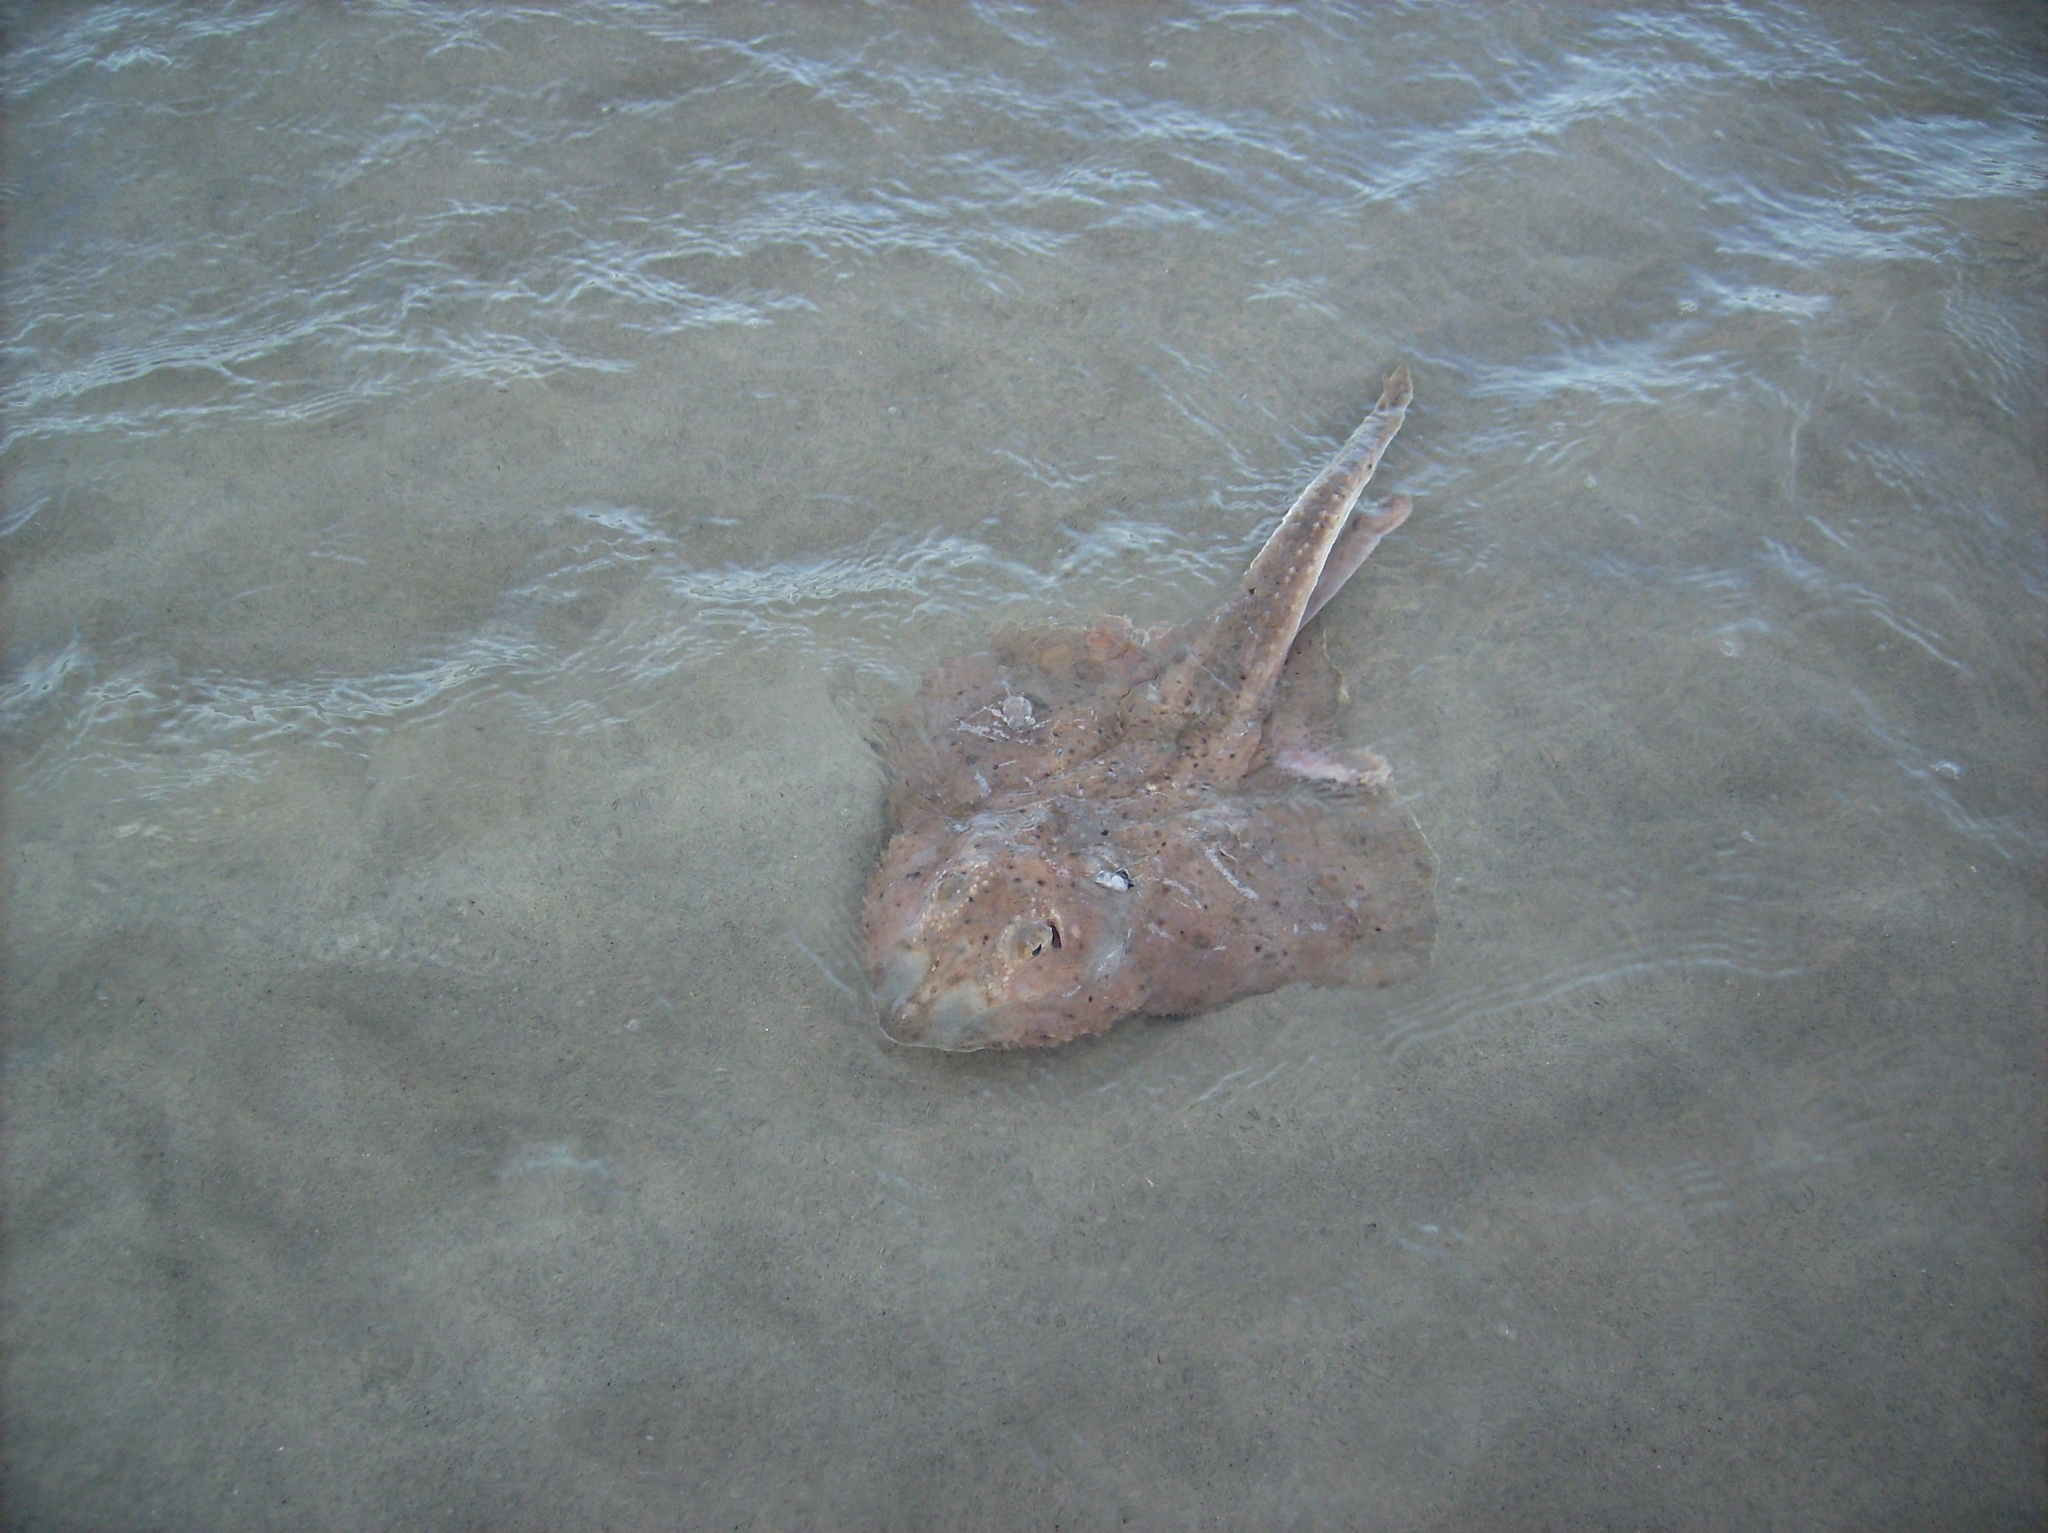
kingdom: Animalia
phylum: Chordata
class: Elasmobranchii
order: Rajiformes
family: Rajidae
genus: Leucoraja
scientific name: Leucoraja erinacea
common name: Little skate
